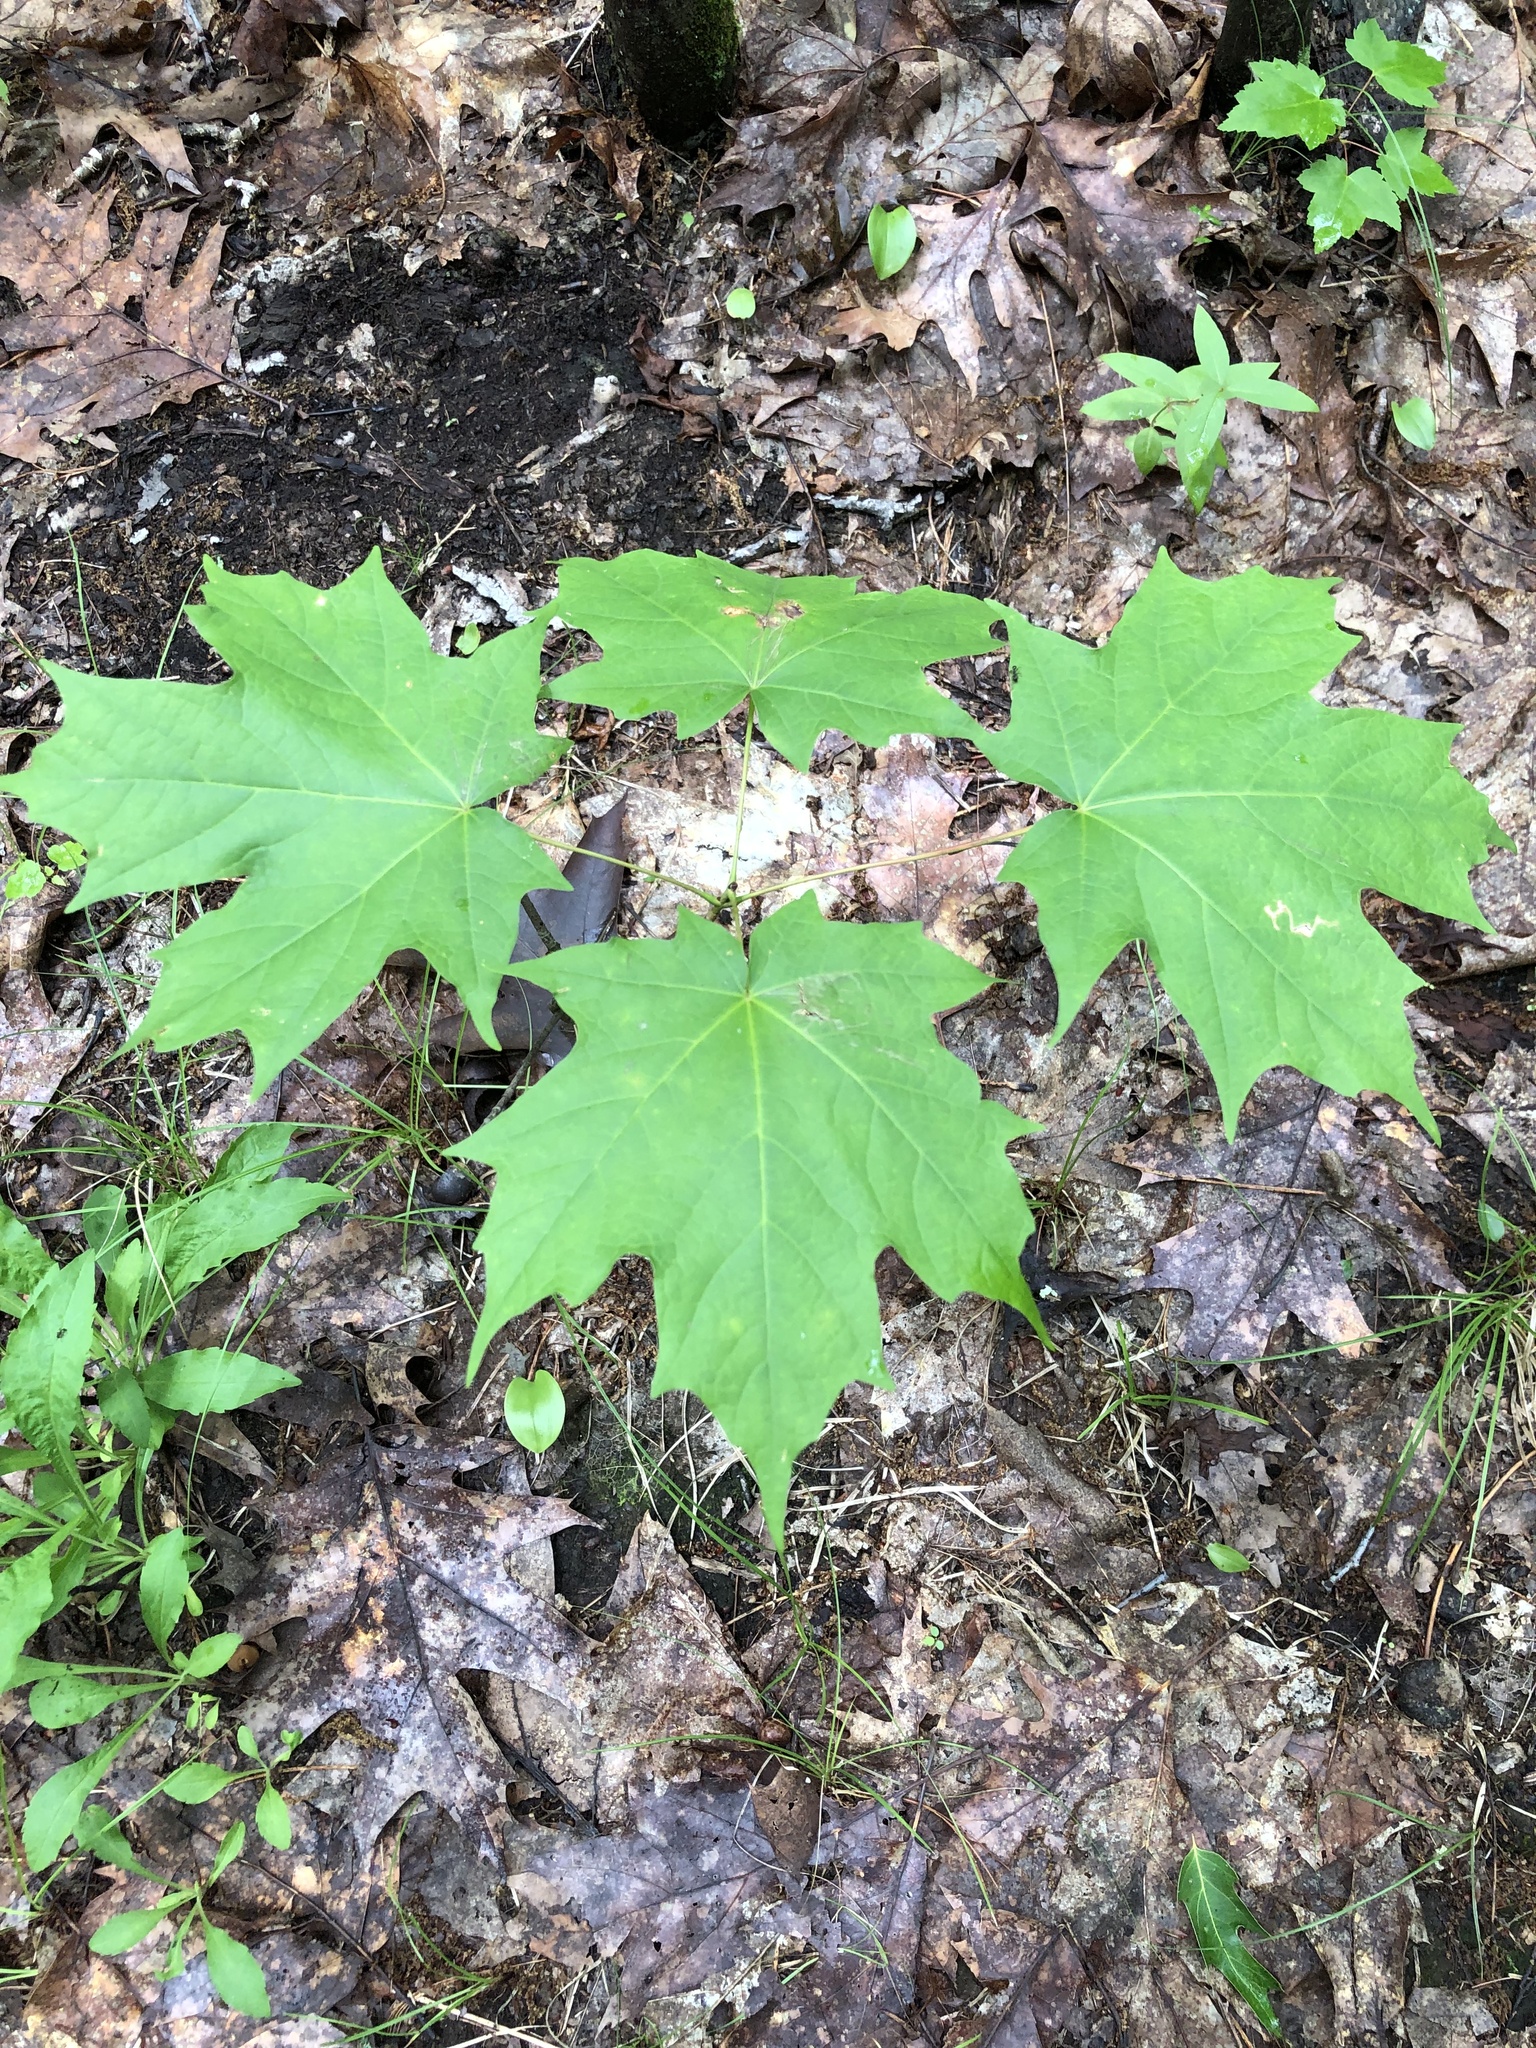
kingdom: Plantae
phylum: Tracheophyta
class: Magnoliopsida
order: Sapindales
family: Sapindaceae
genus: Acer
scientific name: Acer saccharum
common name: Sugar maple
